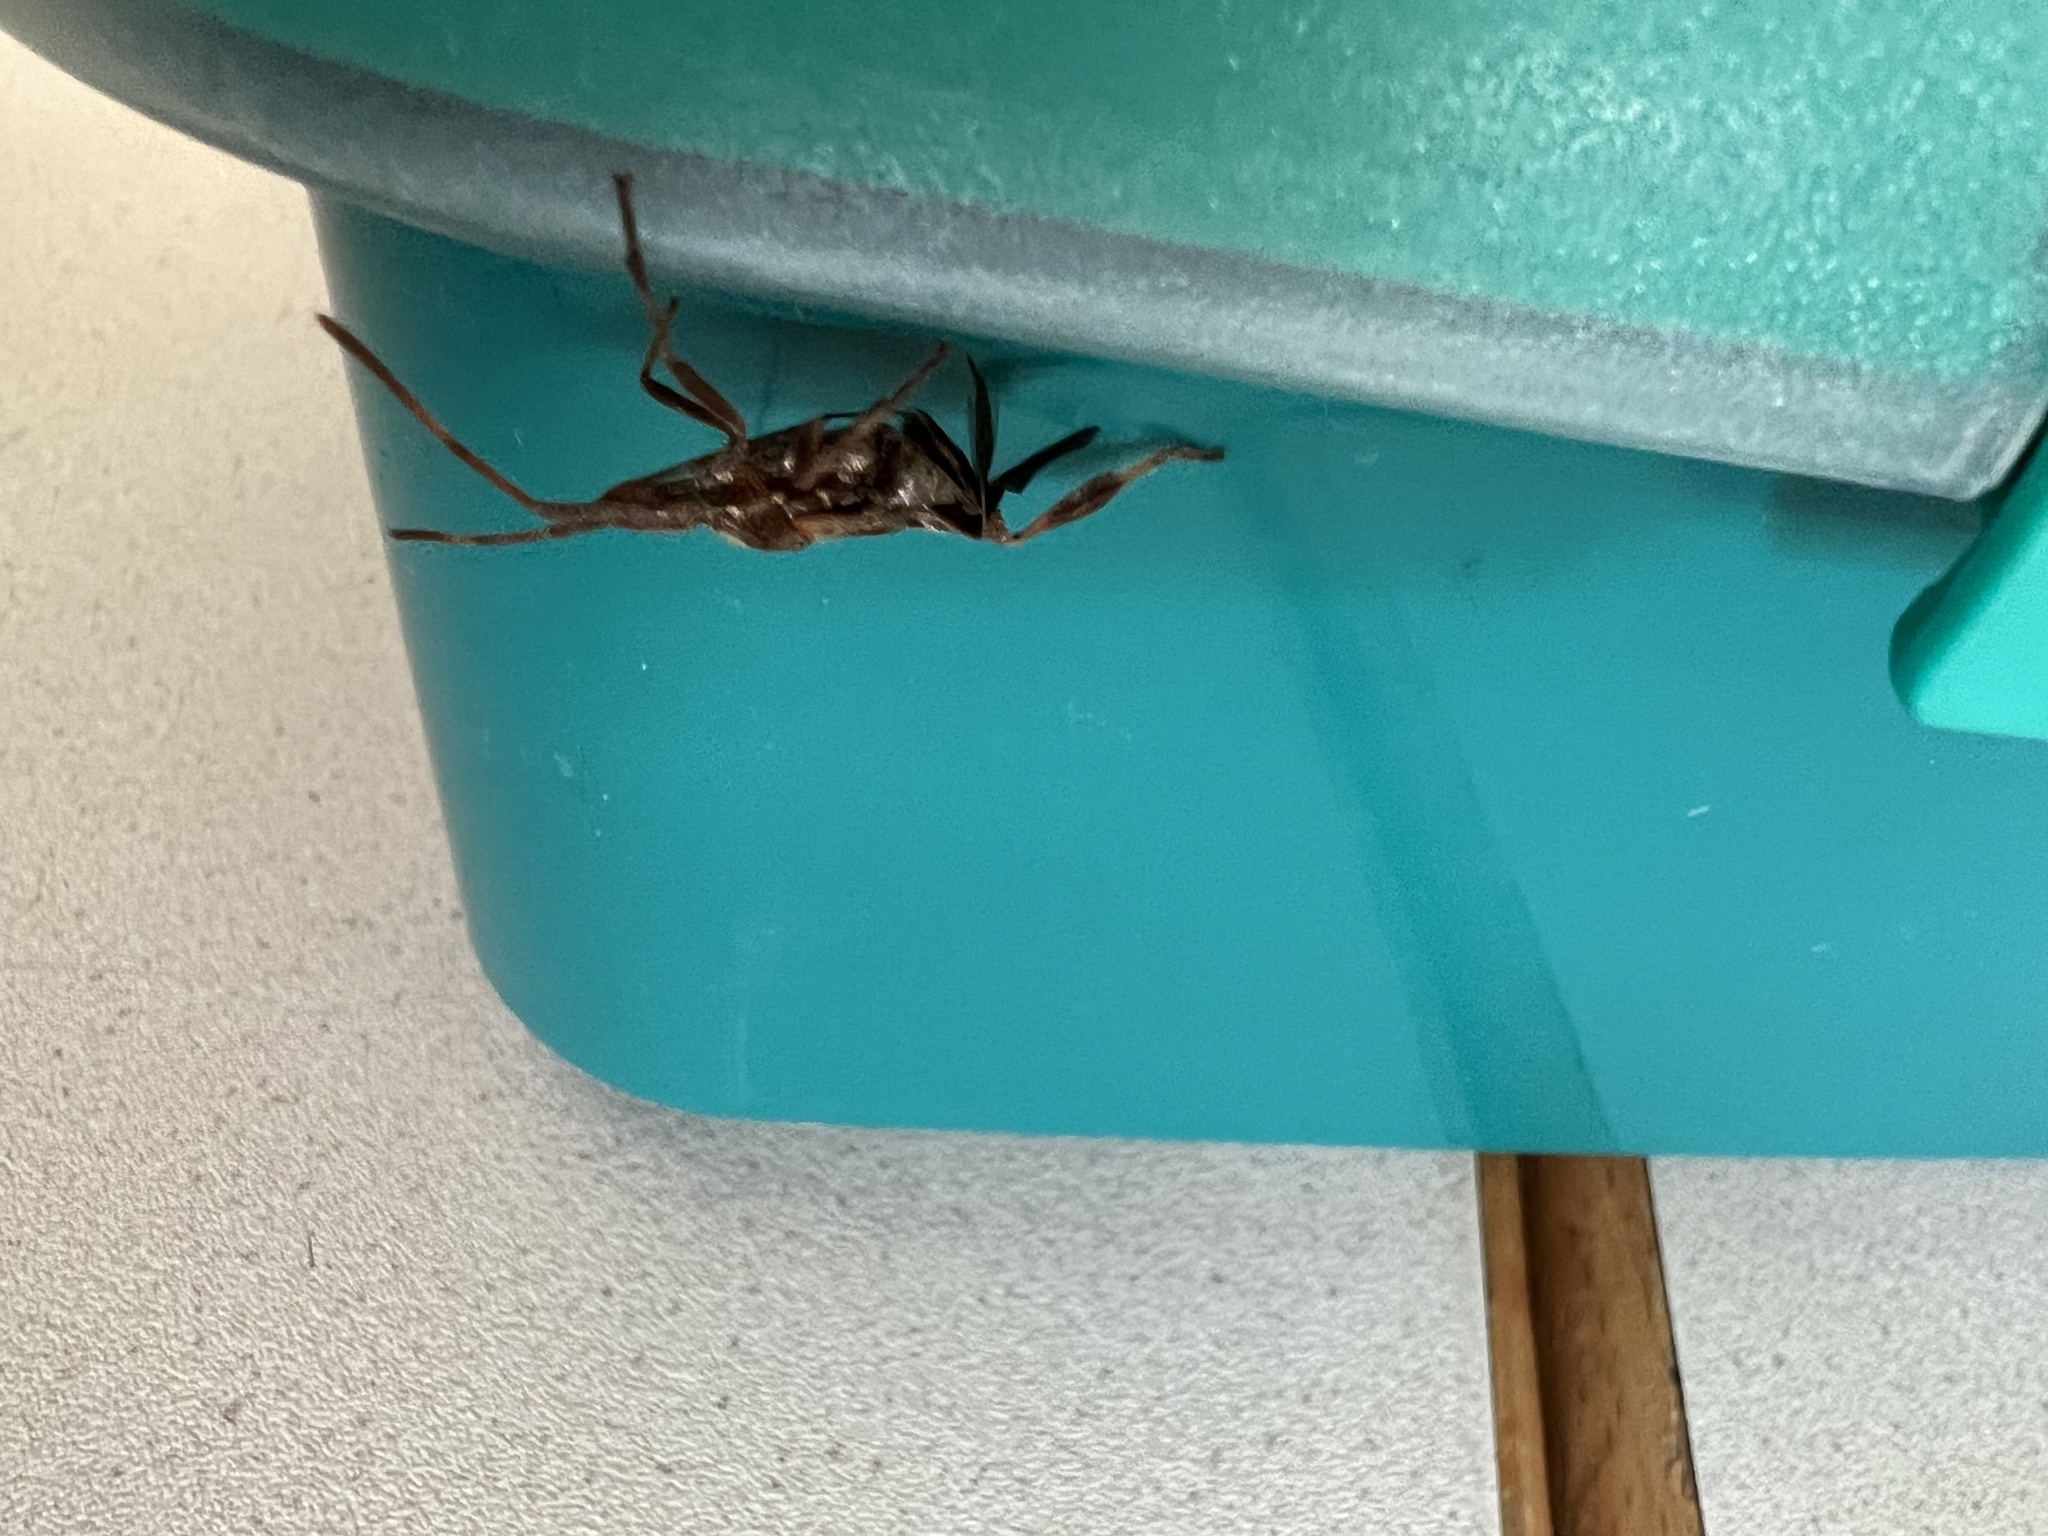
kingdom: Animalia
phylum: Arthropoda
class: Insecta
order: Hemiptera
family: Coreidae
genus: Leptoglossus
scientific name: Leptoglossus occidentalis
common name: Western conifer-seed bug
